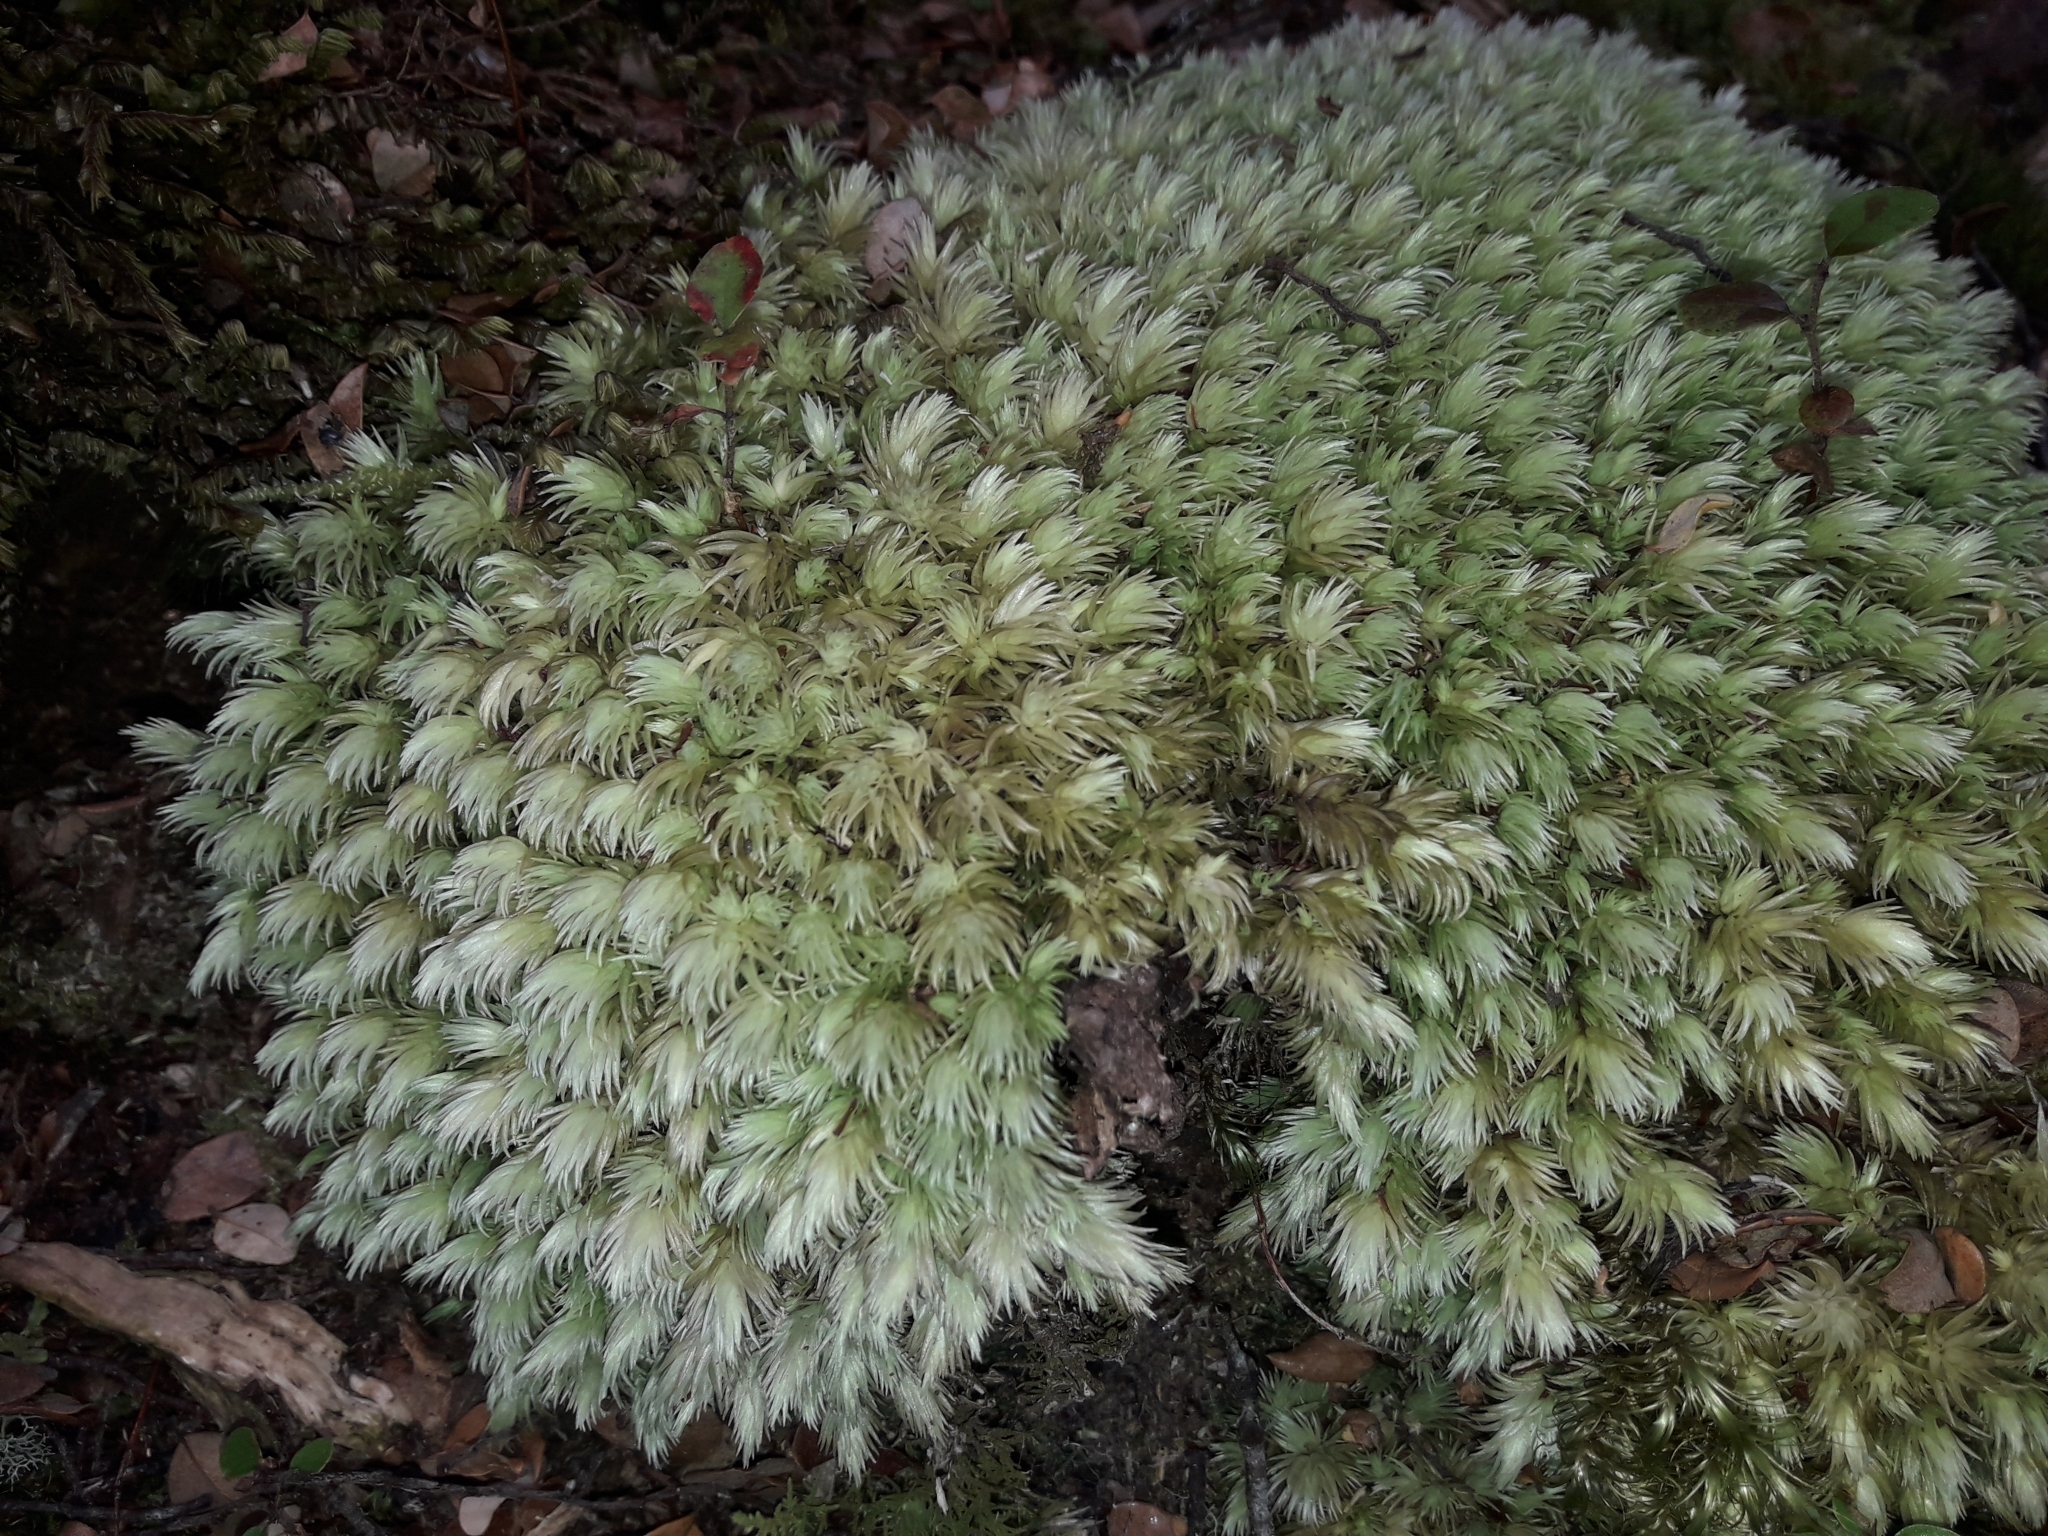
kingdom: Plantae
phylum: Bryophyta
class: Bryopsida
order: Dicranales
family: Leucobryaceae
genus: Leucobryum
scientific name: Leucobryum javense
